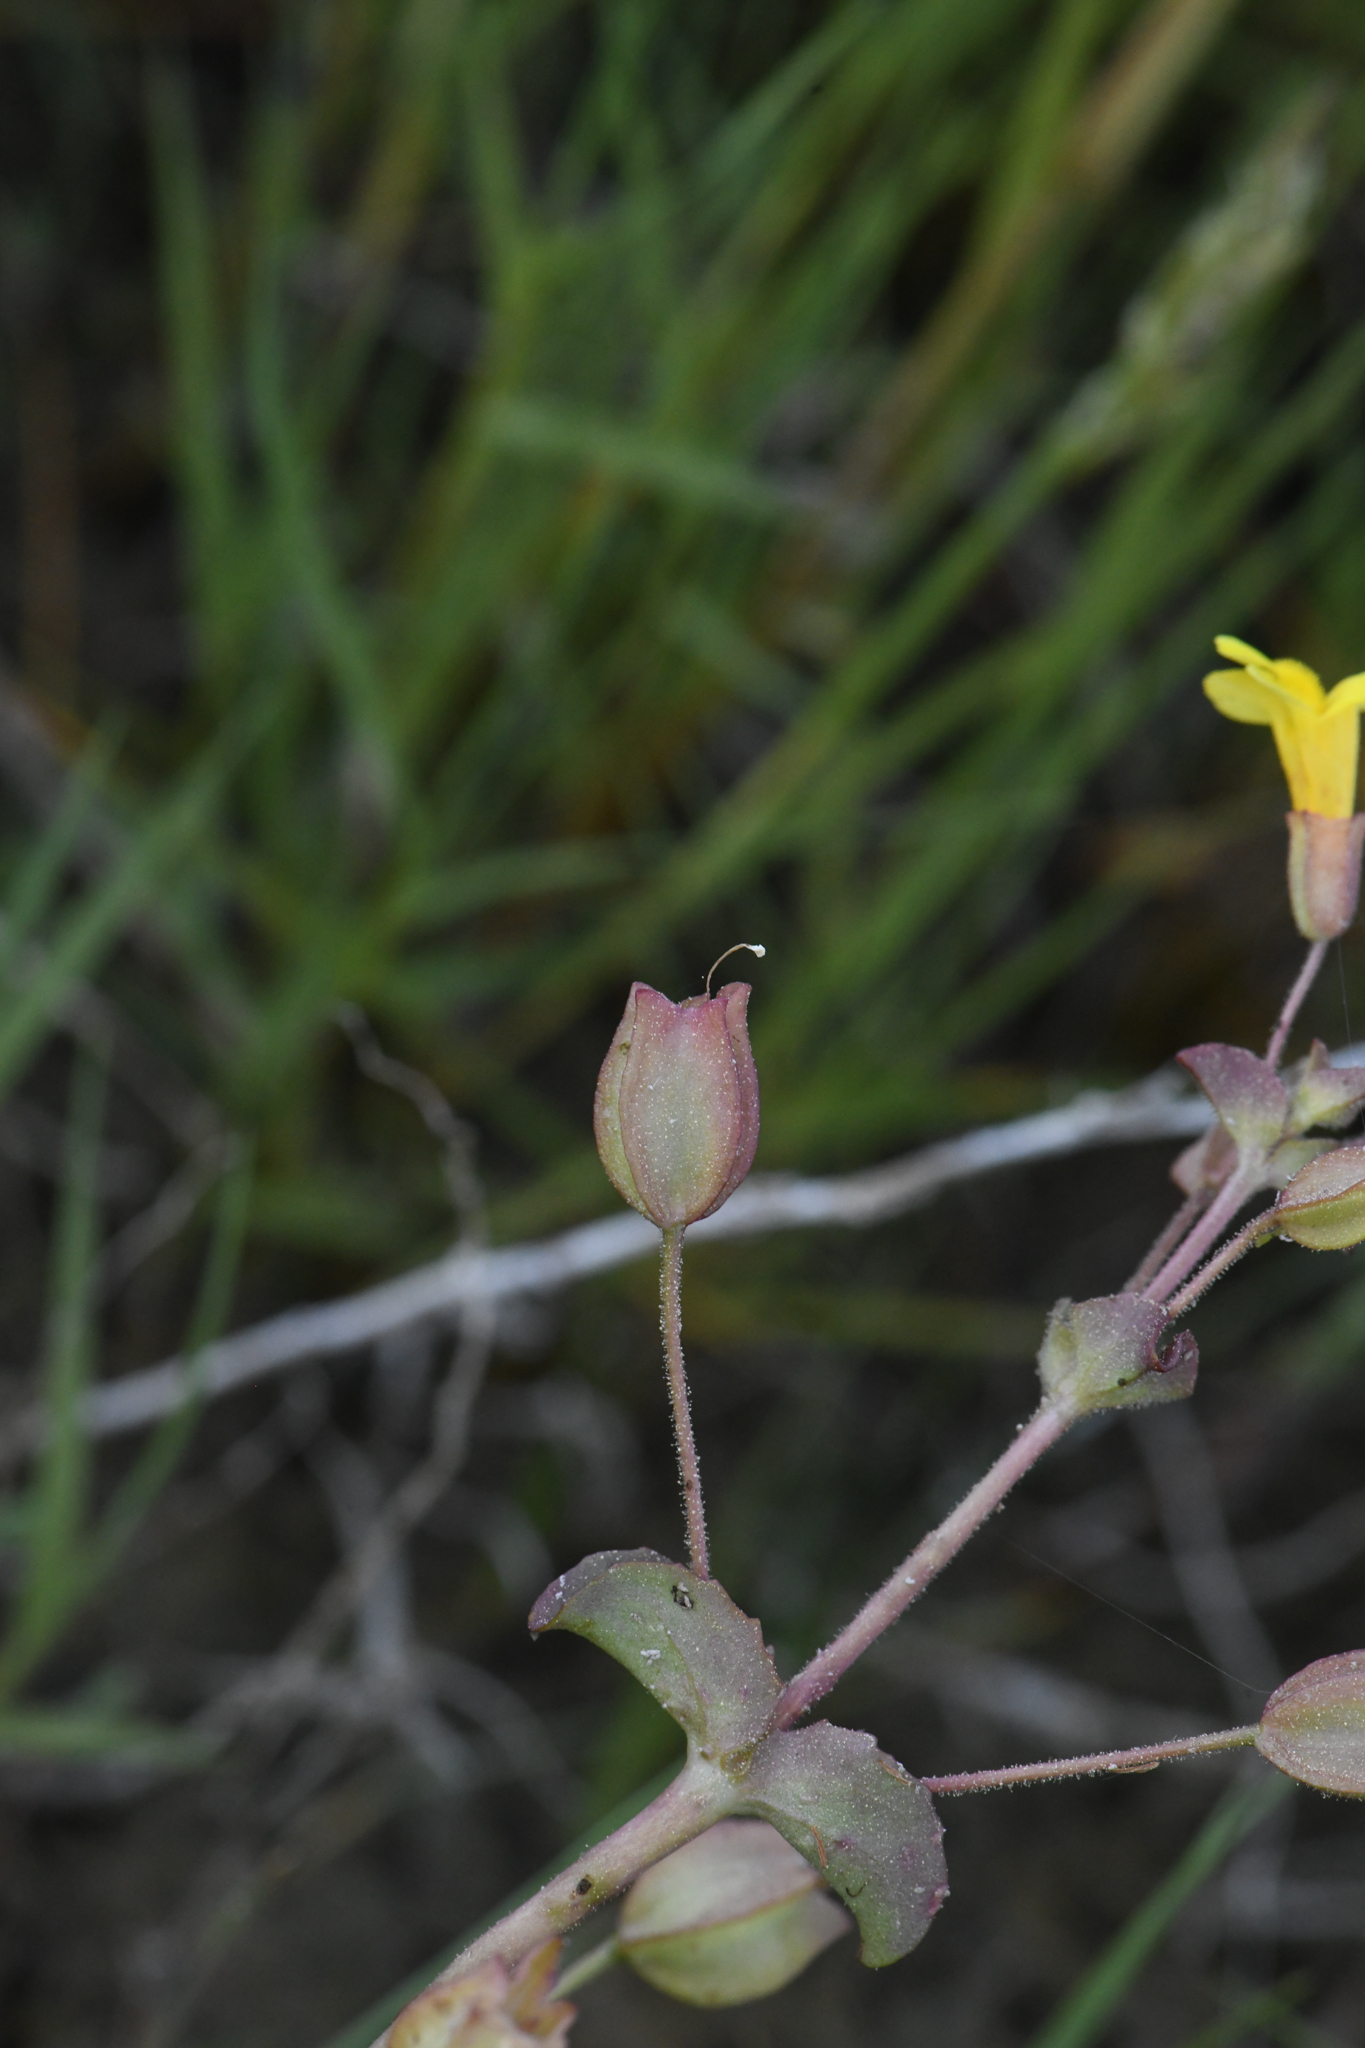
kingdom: Plantae
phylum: Tracheophyta
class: Magnoliopsida
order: Lamiales
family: Phrymaceae
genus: Erythranthe
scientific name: Erythranthe utahensis
